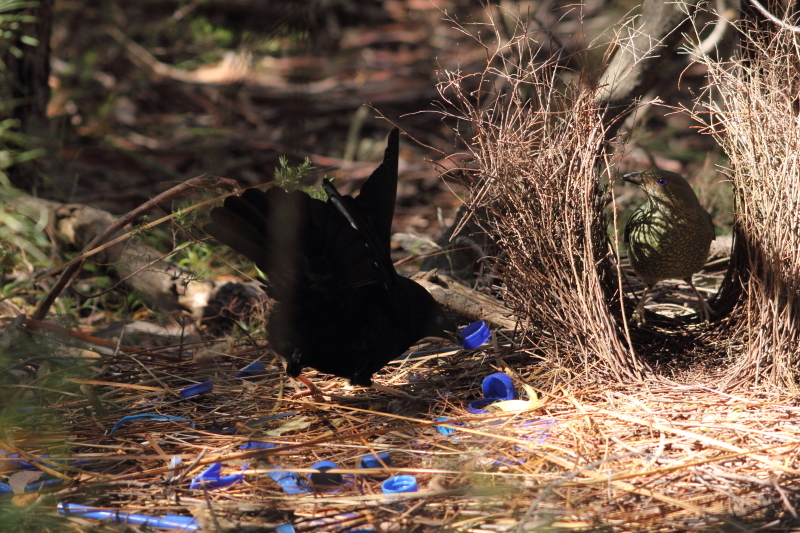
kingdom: Animalia
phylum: Chordata
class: Aves
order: Passeriformes
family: Ptilonorhynchidae
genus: Ptilonorhynchus
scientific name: Ptilonorhynchus violaceus
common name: Satin bowerbird
